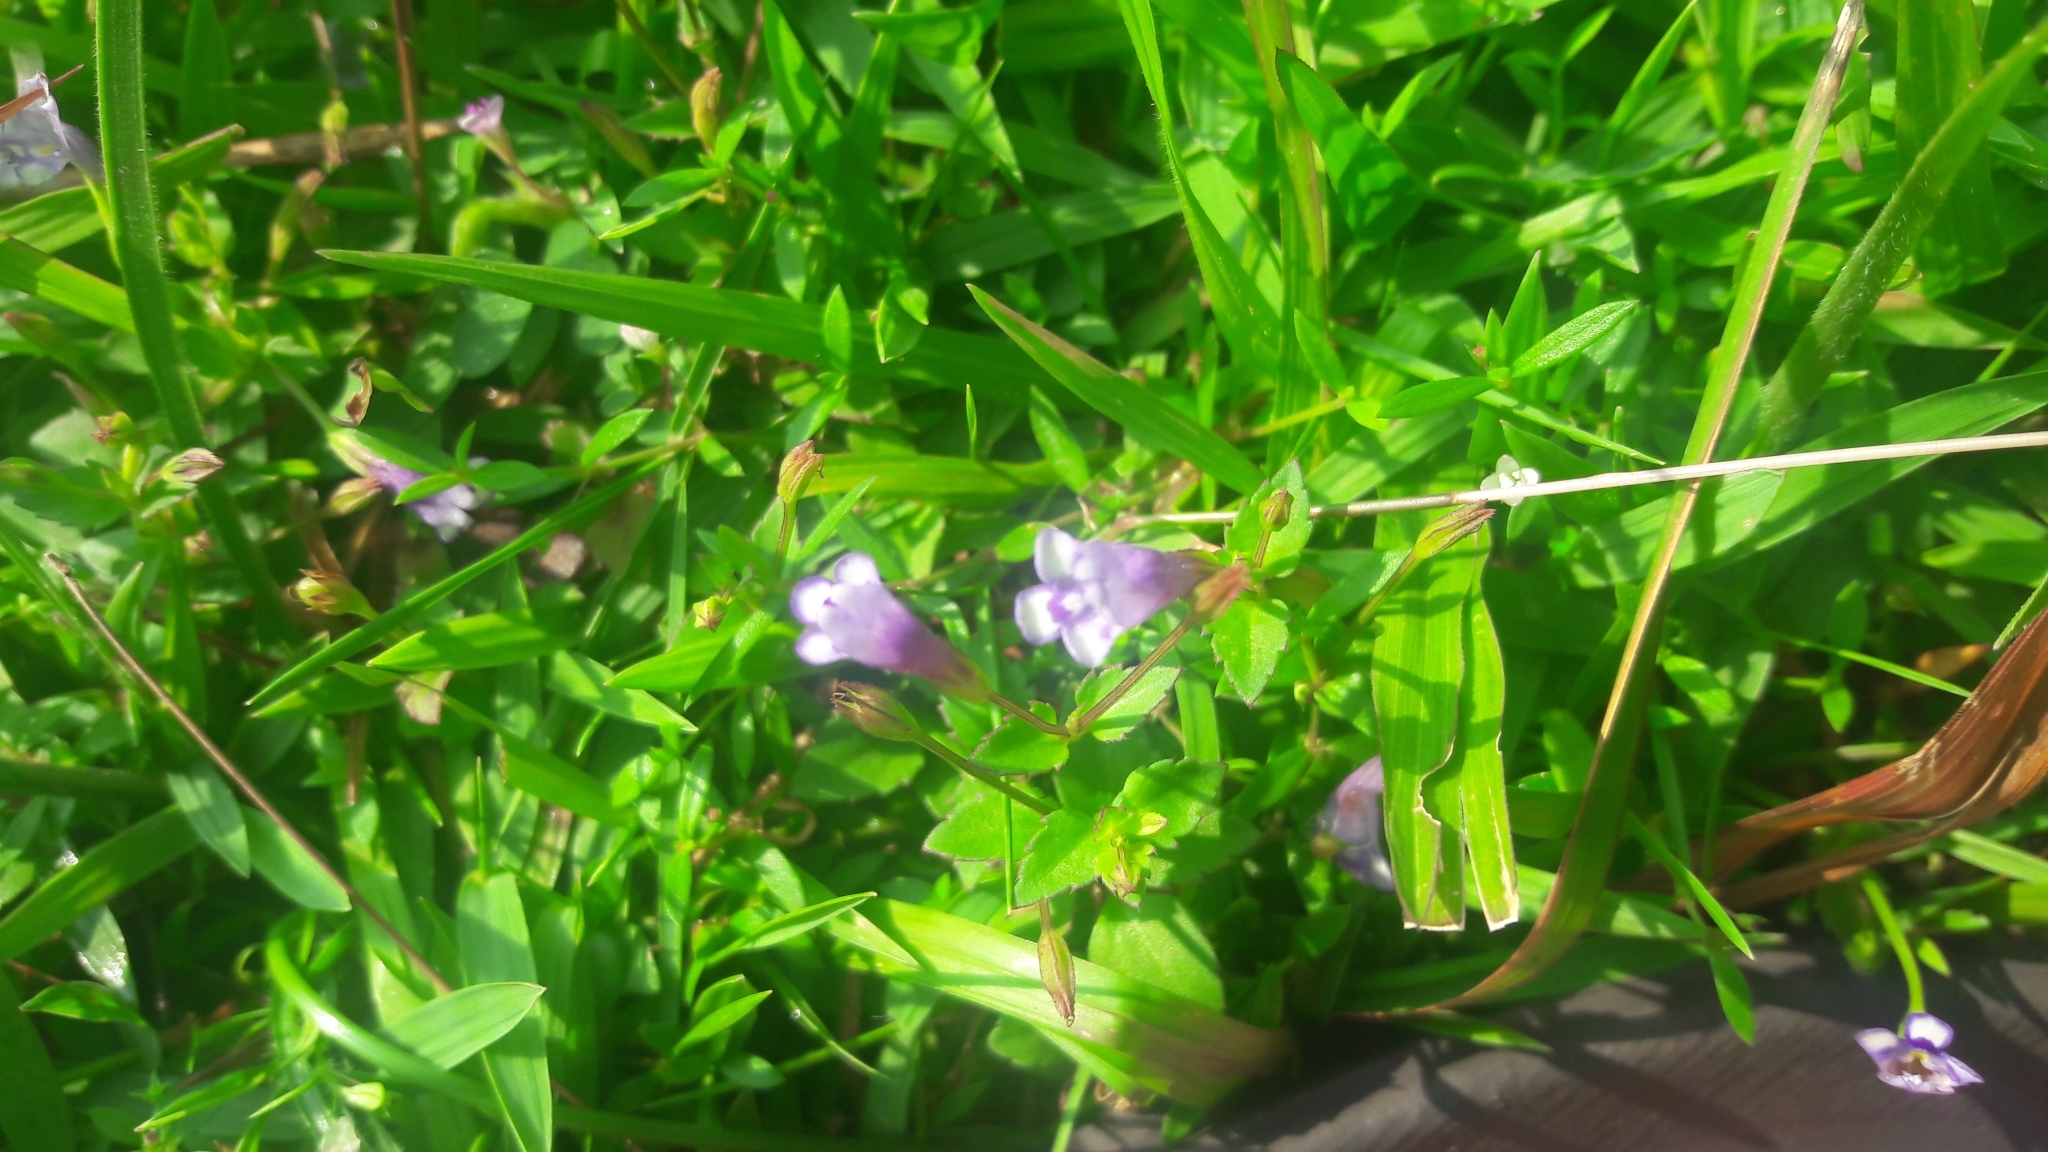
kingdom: Plantae
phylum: Tracheophyta
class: Magnoliopsida
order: Lamiales
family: Linderniaceae
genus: Torenia
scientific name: Torenia crustacea
